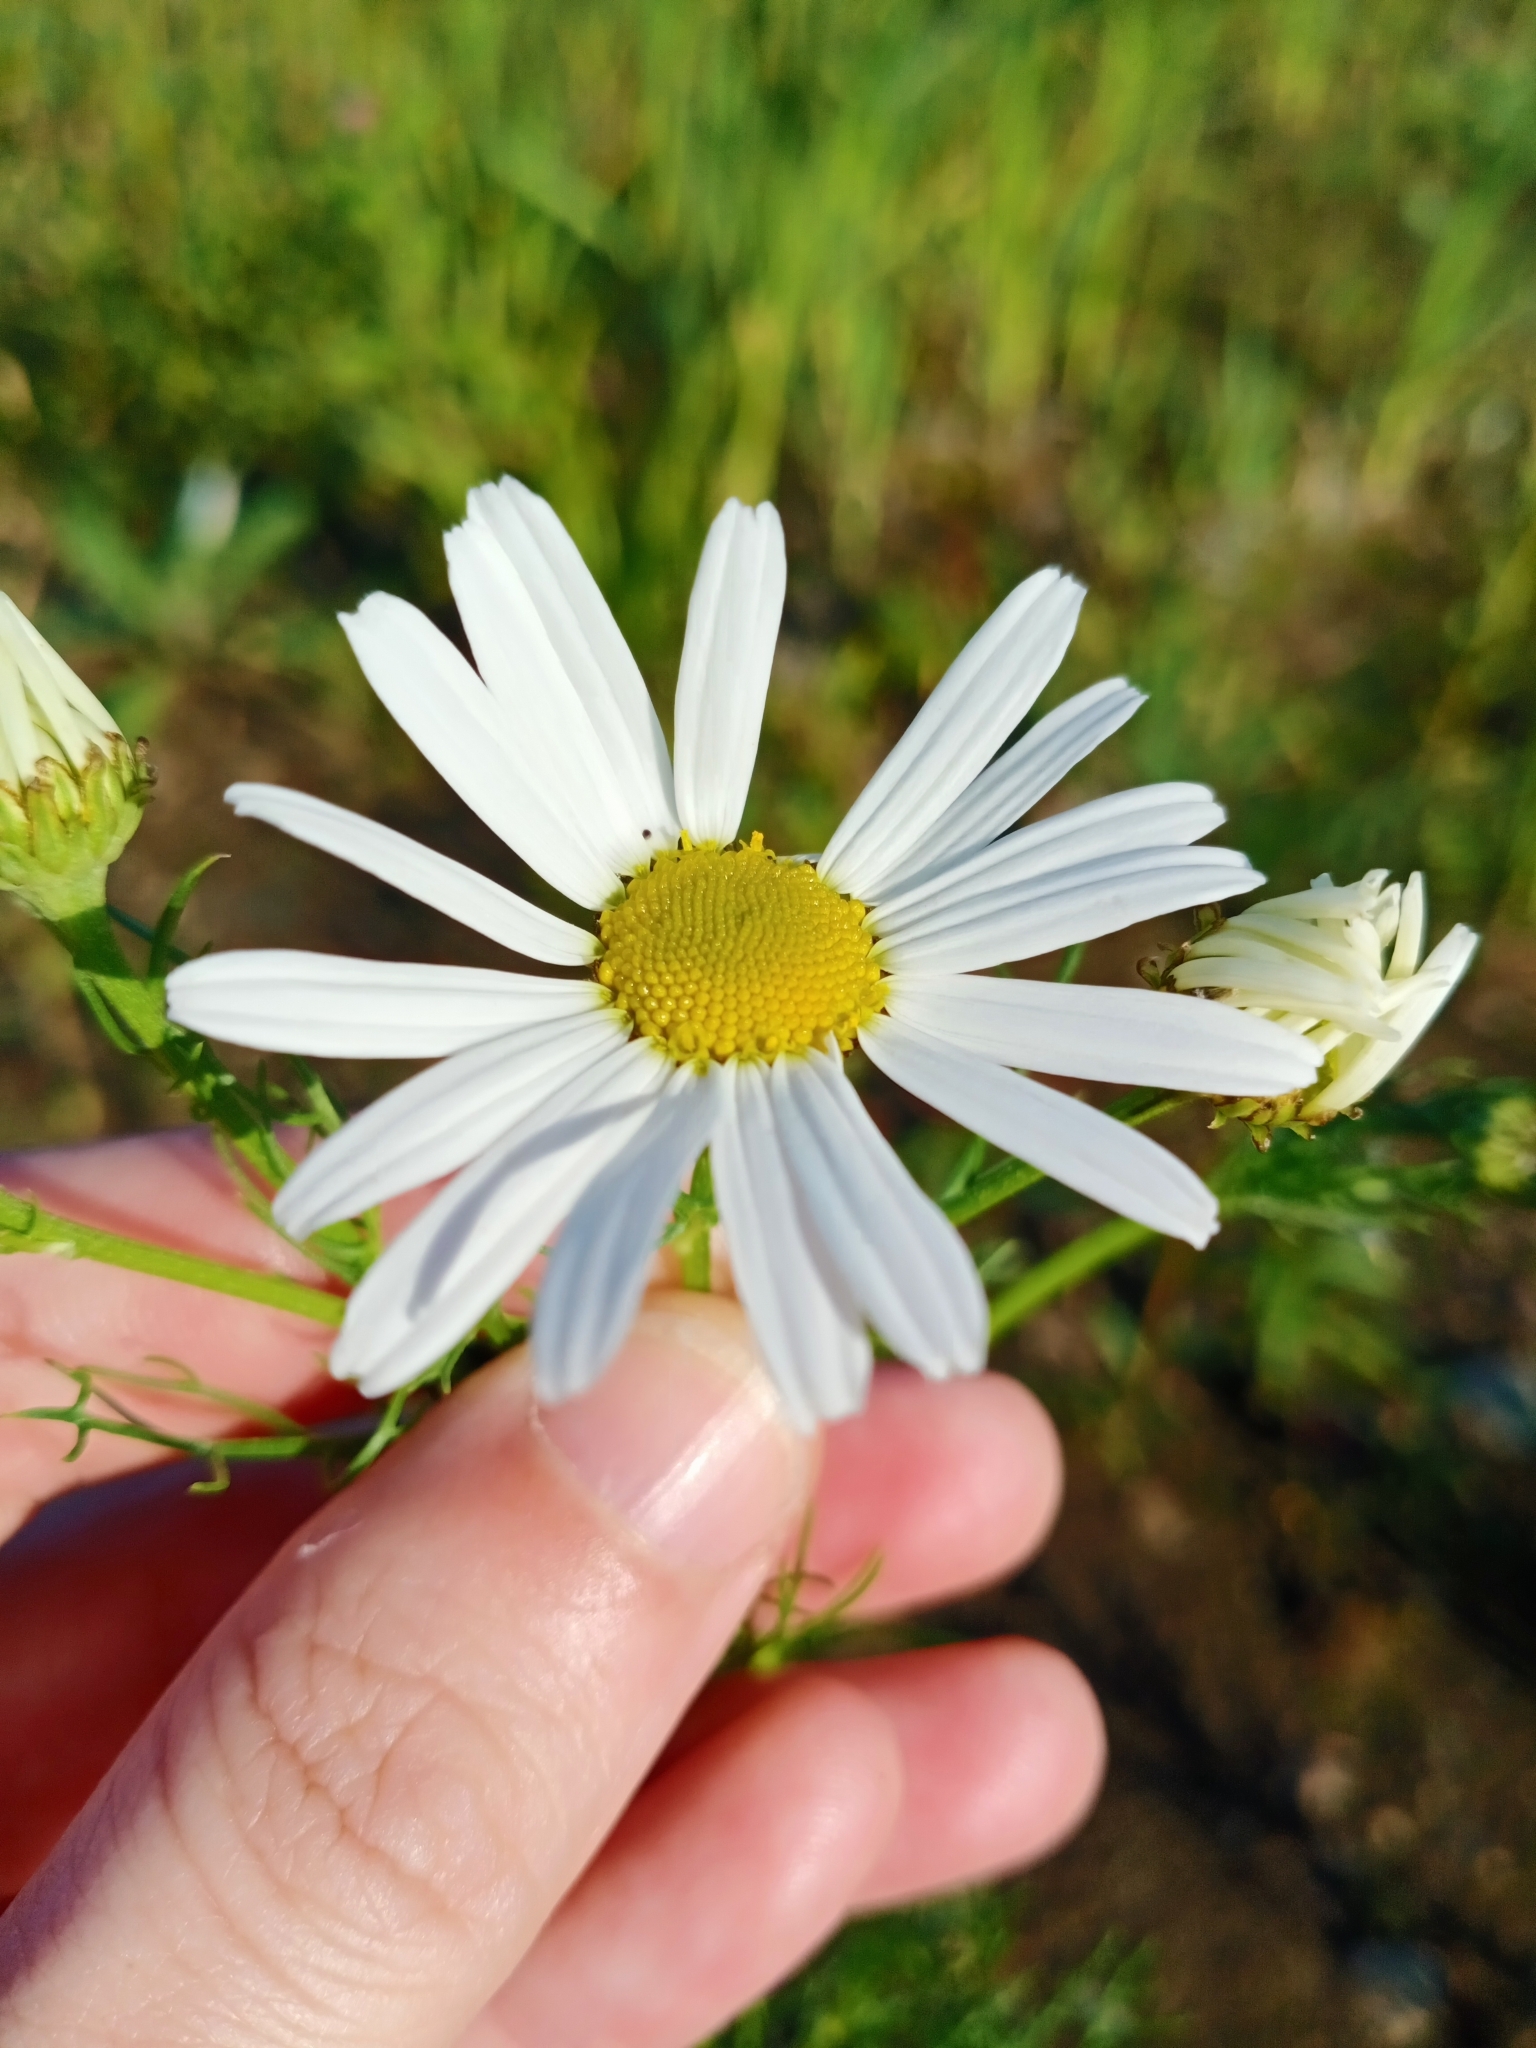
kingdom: Plantae
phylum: Tracheophyta
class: Magnoliopsida
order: Asterales
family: Asteraceae
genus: Tripleurospermum
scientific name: Tripleurospermum inodorum
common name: Scentless mayweed
